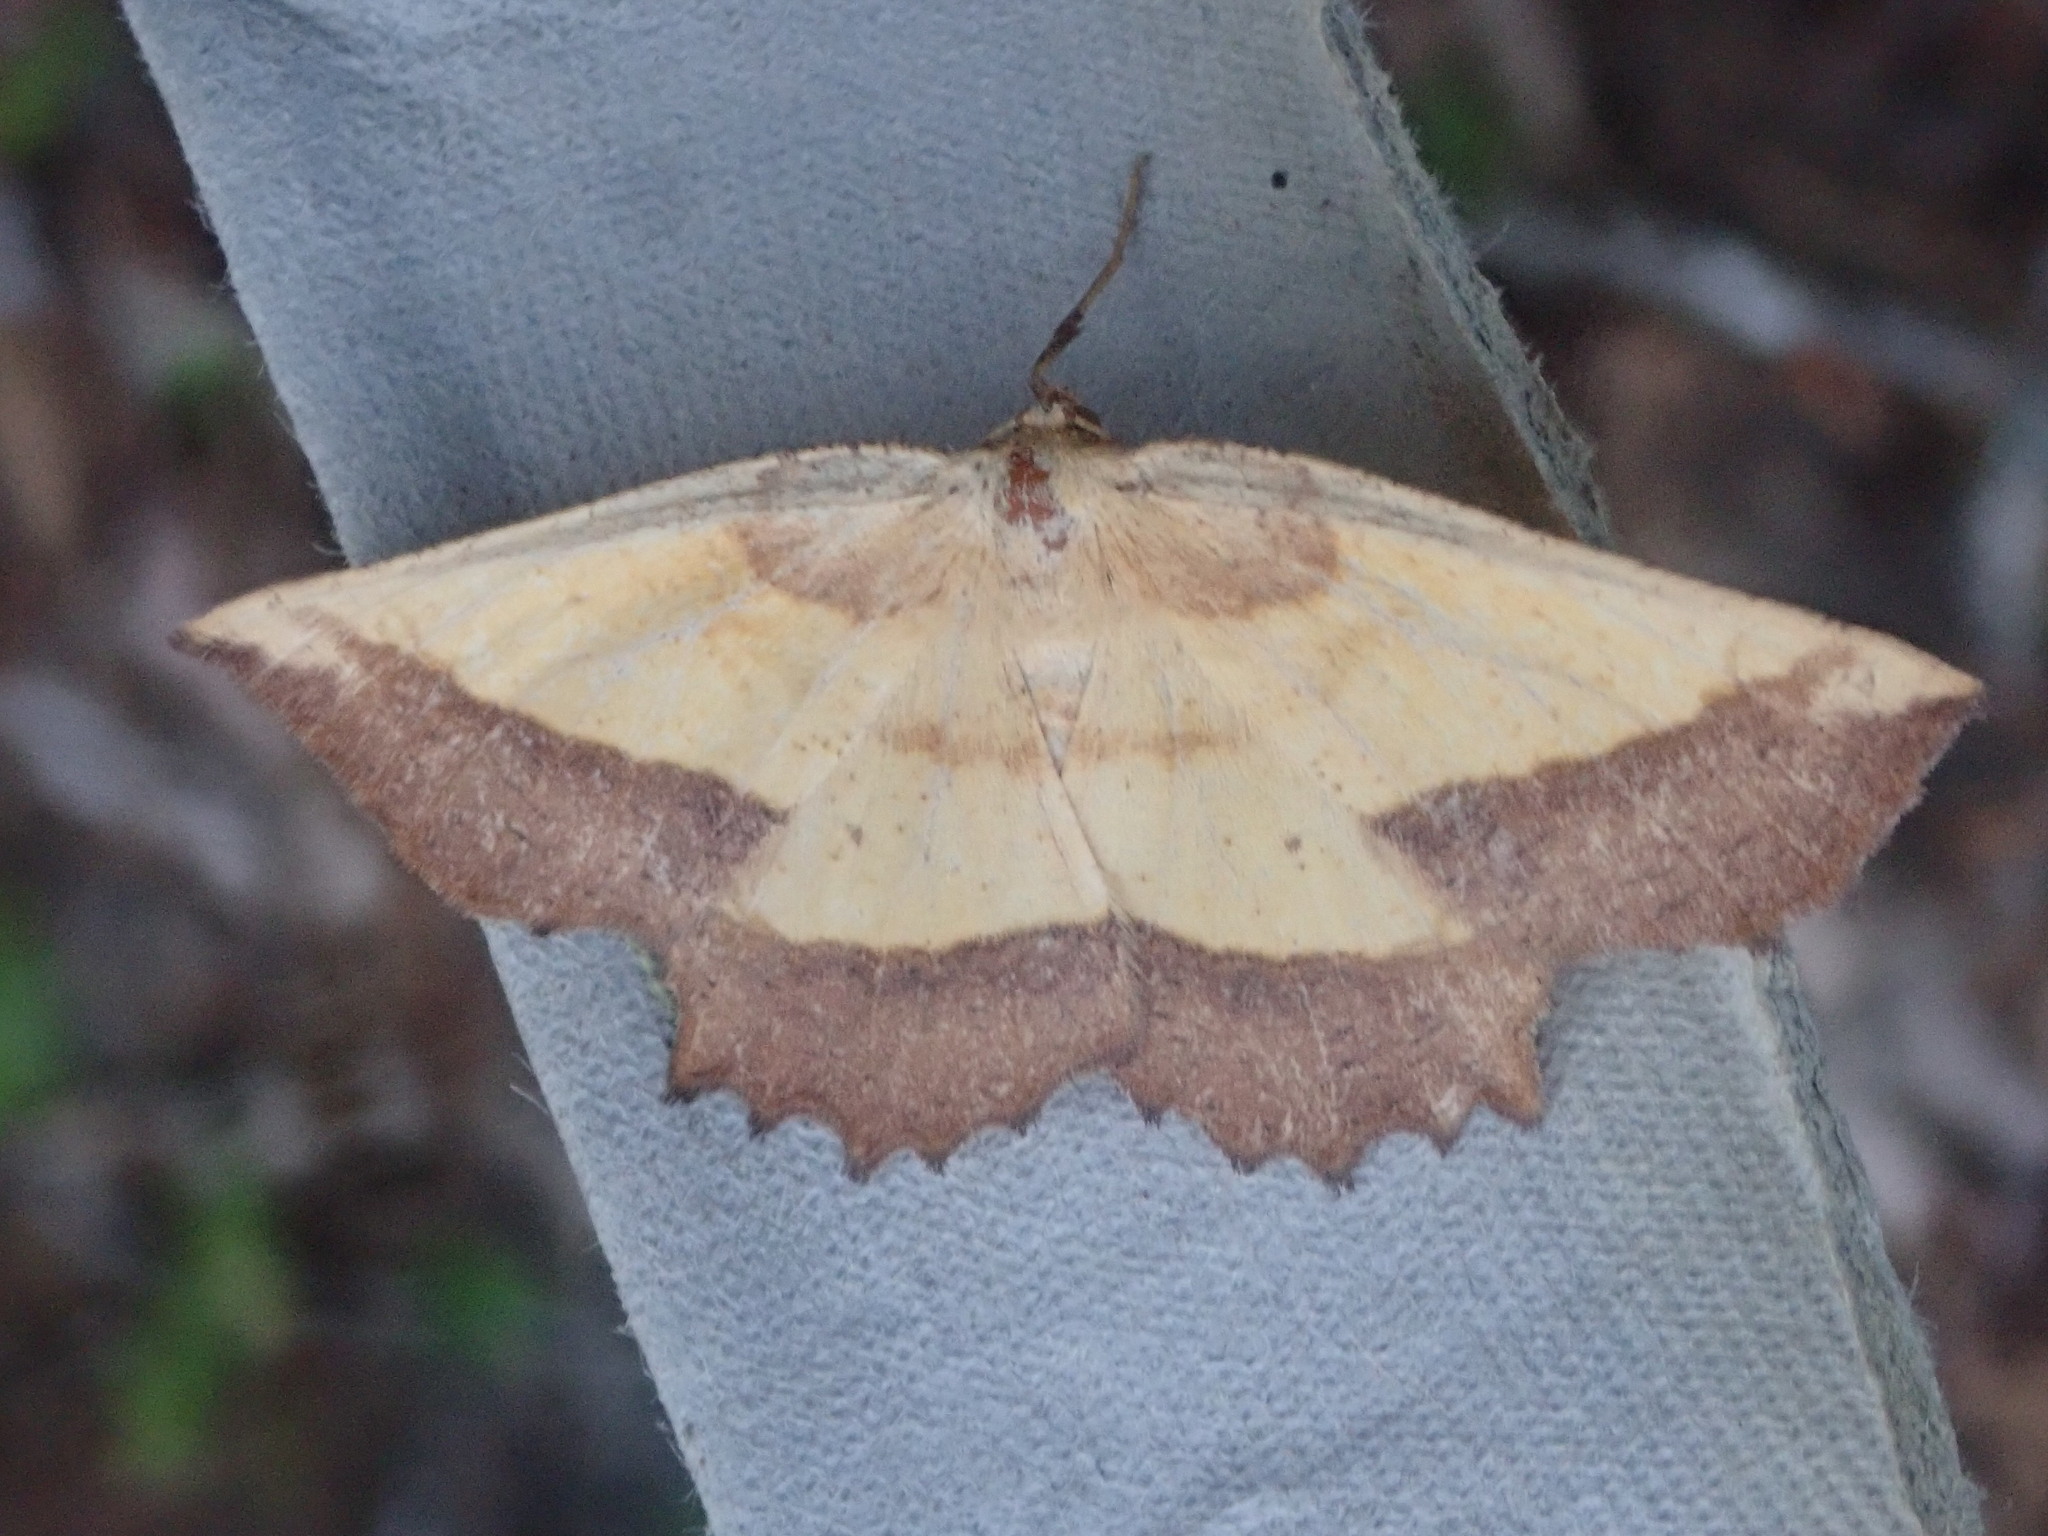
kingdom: Animalia
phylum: Arthropoda
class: Insecta
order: Lepidoptera
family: Geometridae
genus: Euchlaena
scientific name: Euchlaena serrata
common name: Saw wing
